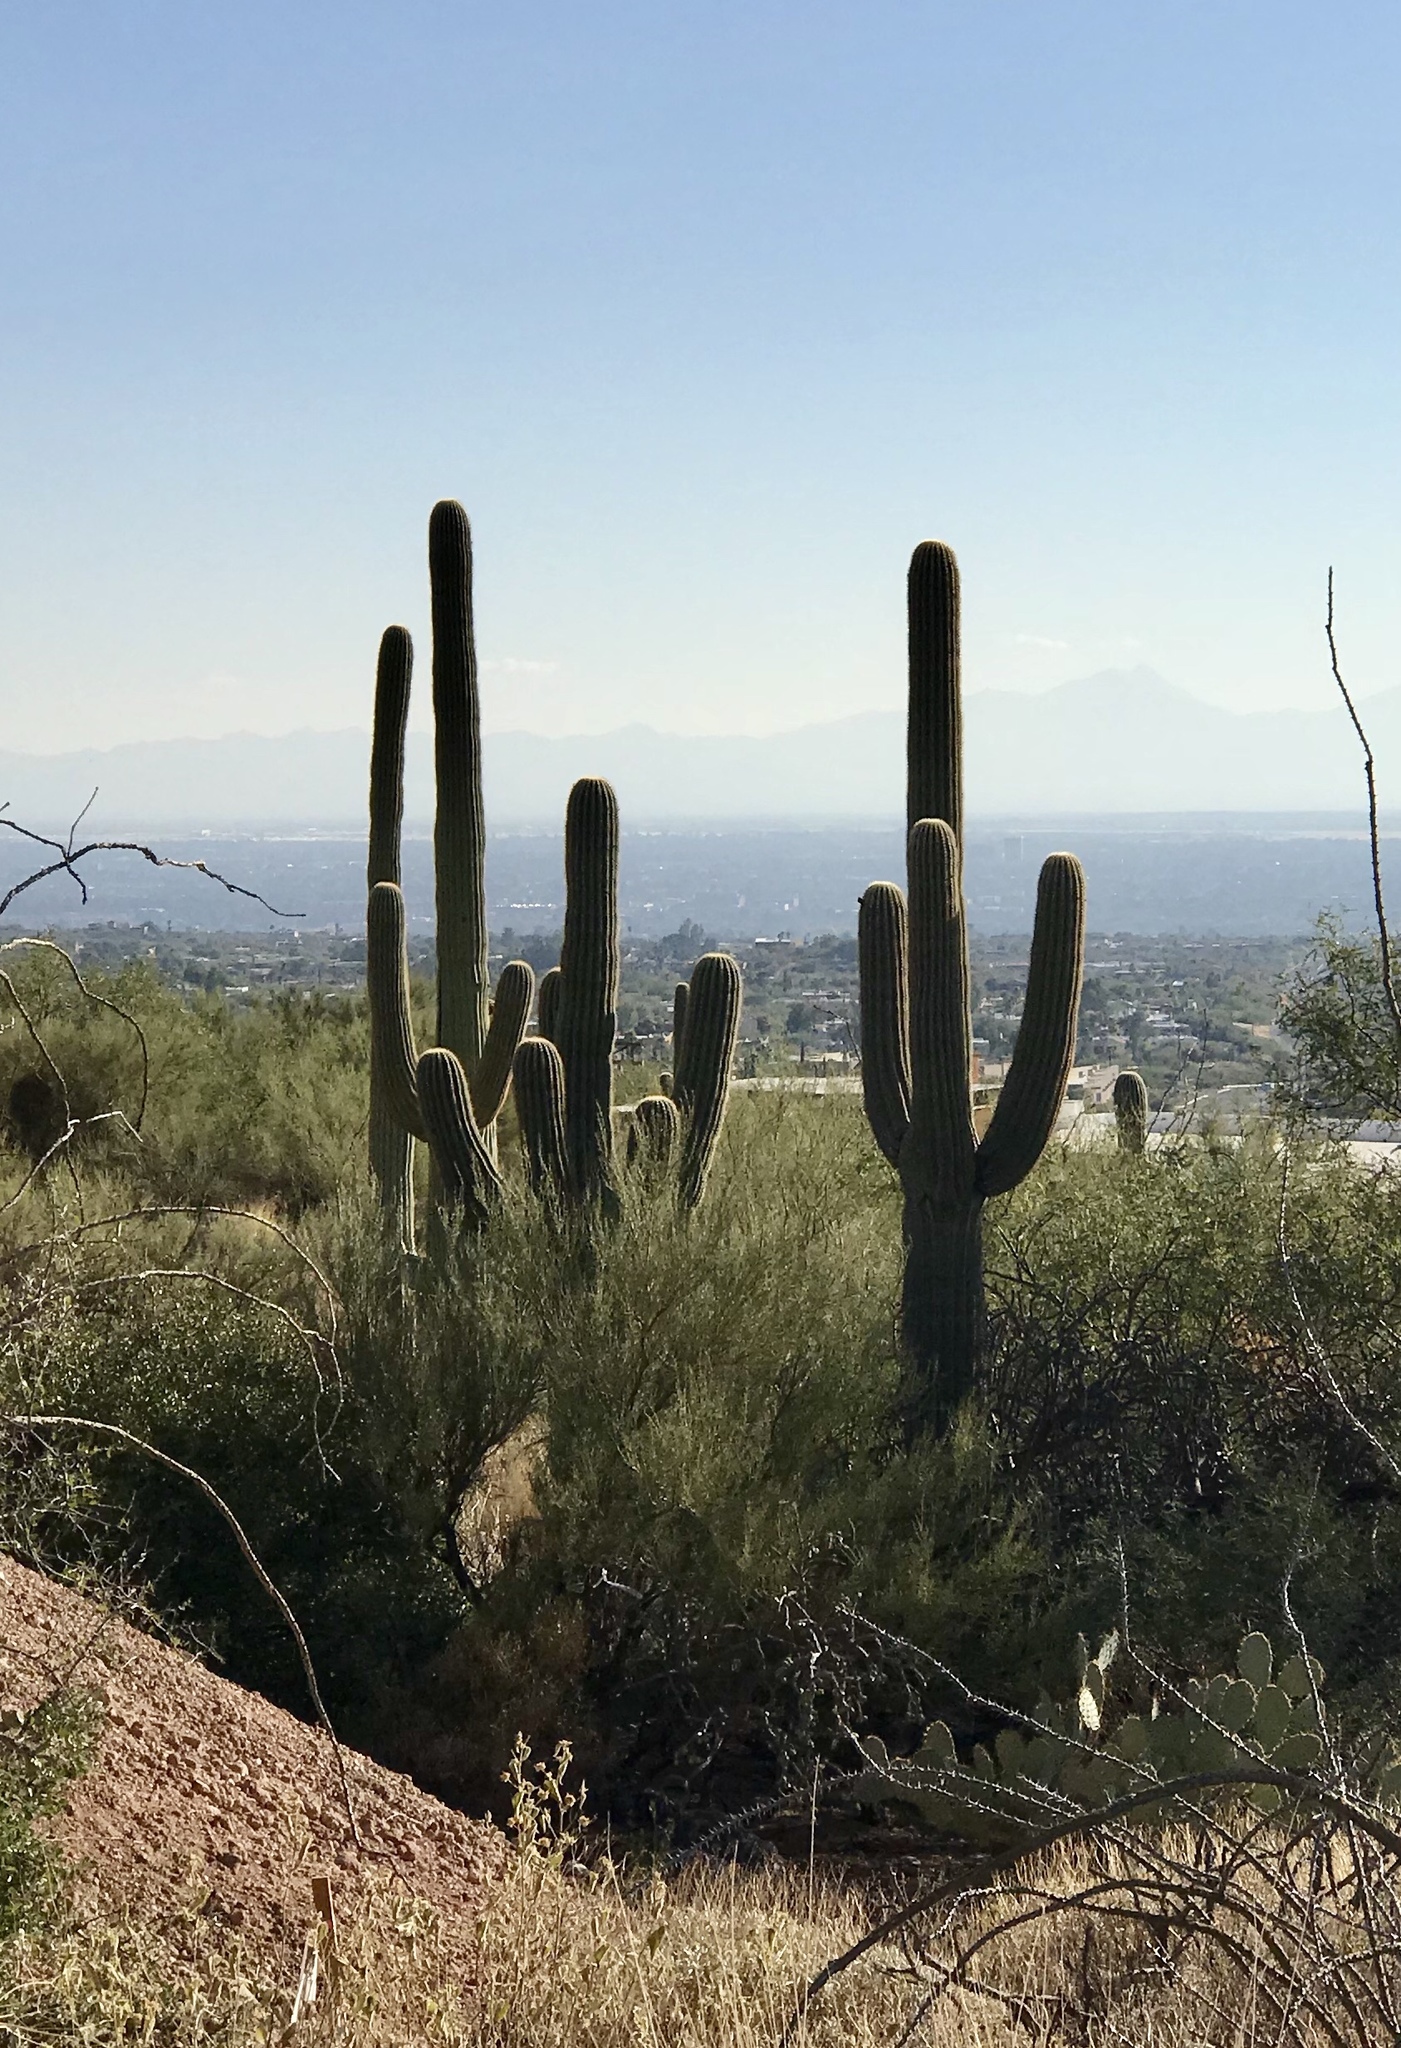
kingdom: Plantae
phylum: Tracheophyta
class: Magnoliopsida
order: Caryophyllales
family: Cactaceae
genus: Carnegiea
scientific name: Carnegiea gigantea
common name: Saguaro
